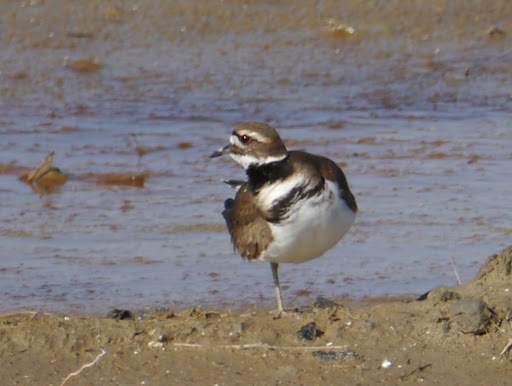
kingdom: Animalia
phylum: Chordata
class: Aves
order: Charadriiformes
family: Charadriidae
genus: Charadrius
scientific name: Charadrius vociferus
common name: Killdeer
